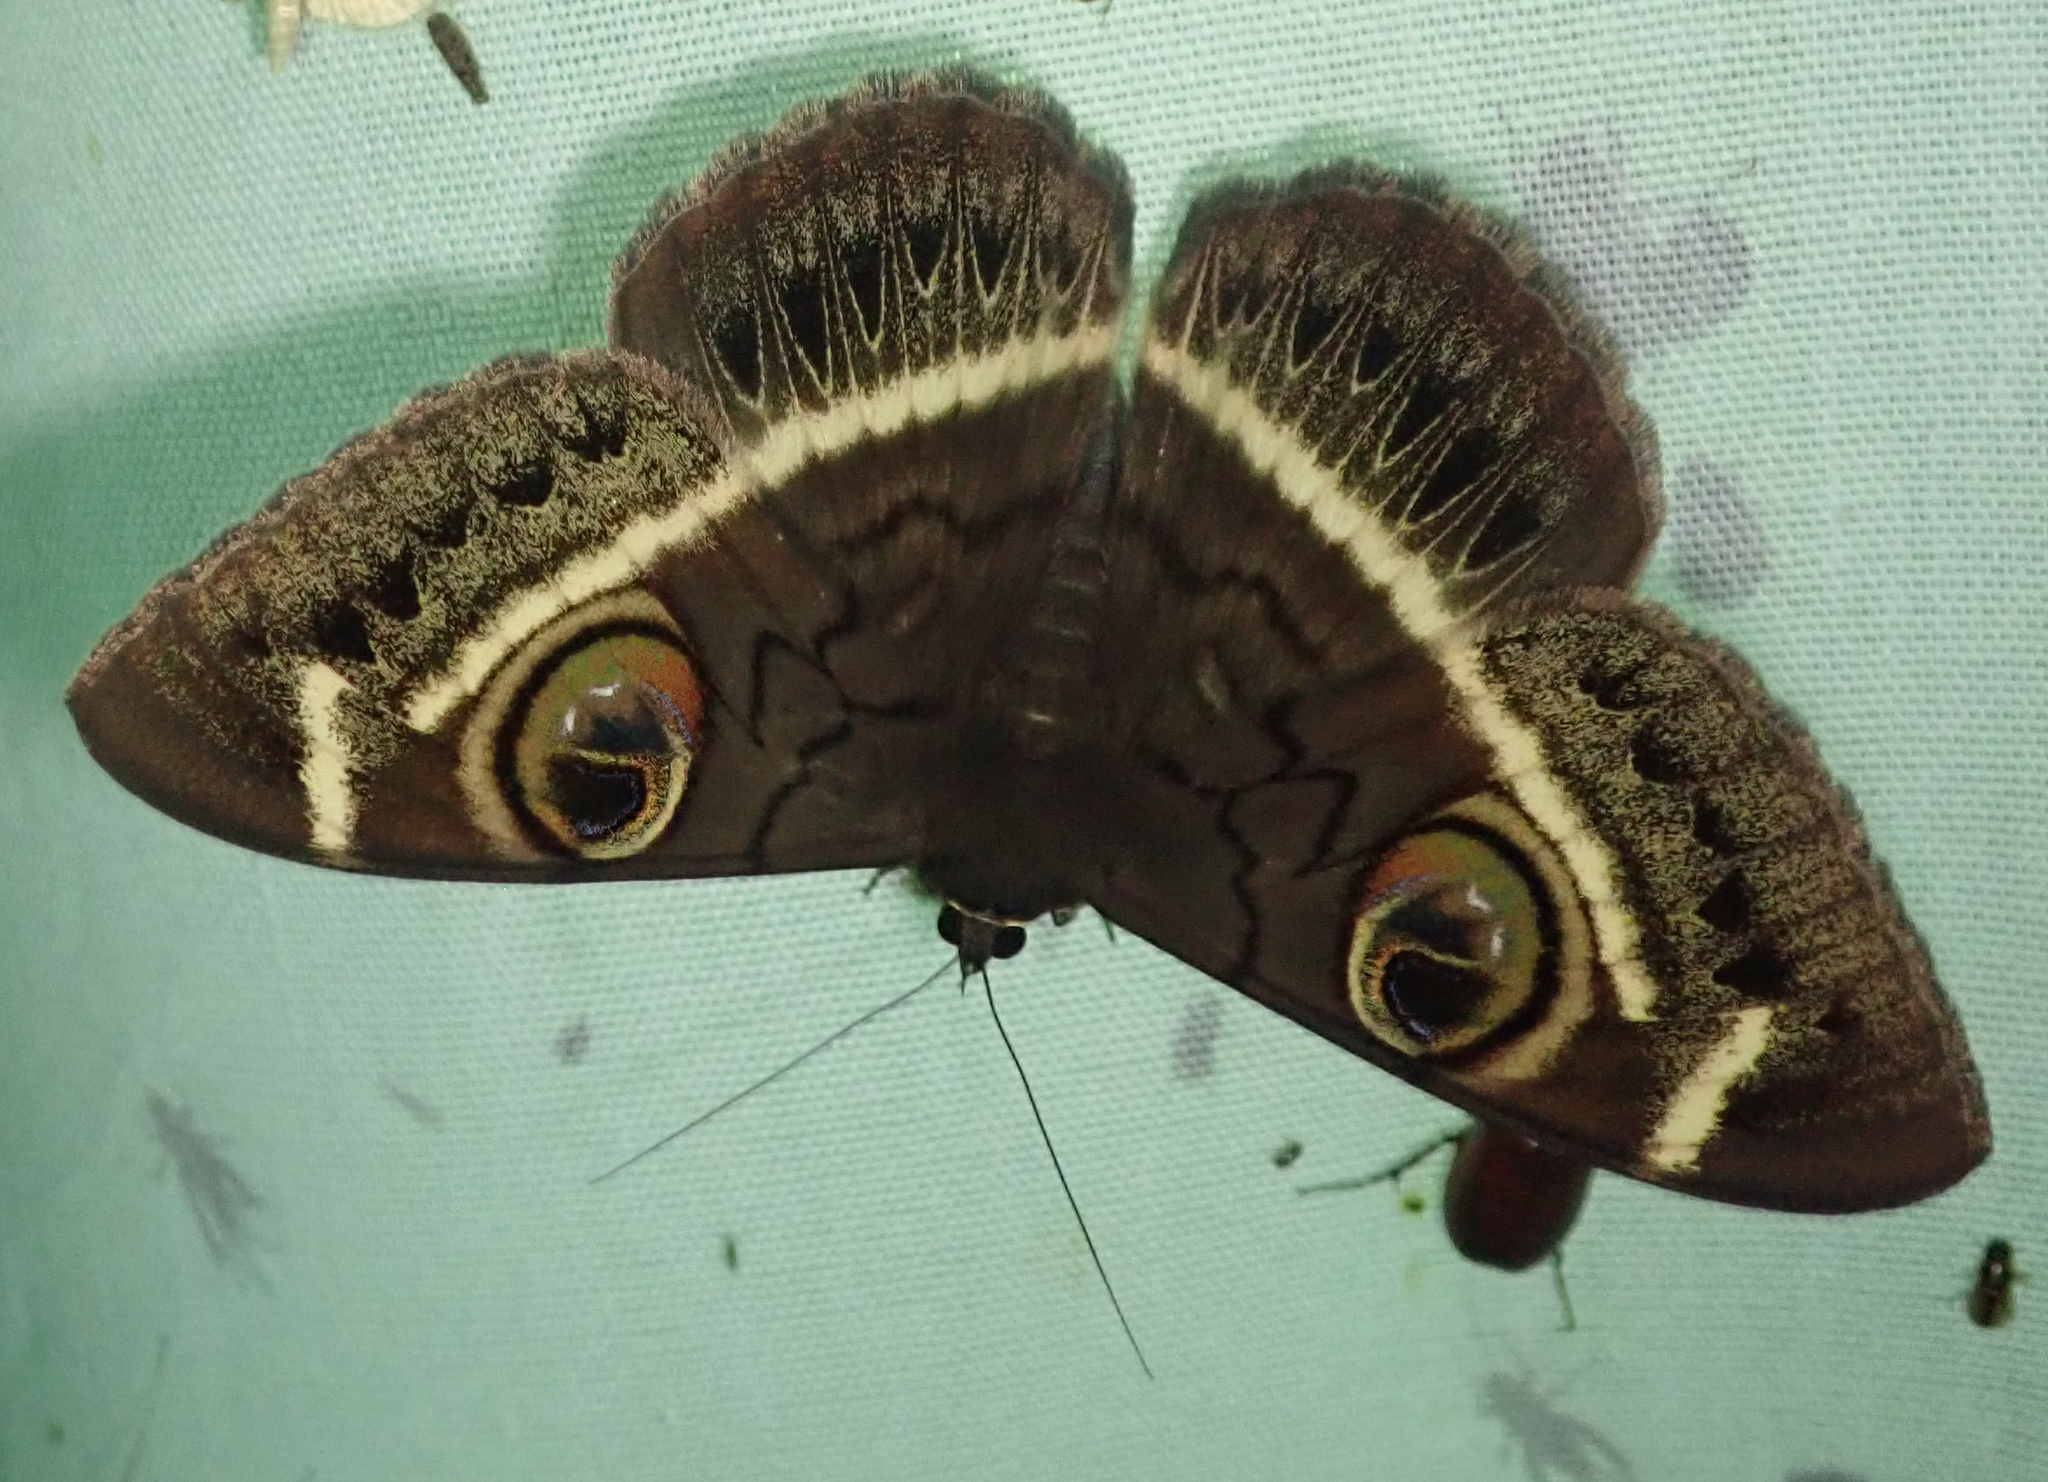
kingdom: Animalia
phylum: Arthropoda
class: Insecta
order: Lepidoptera
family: Erebidae
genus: Cyligramma
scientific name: Cyligramma latona
